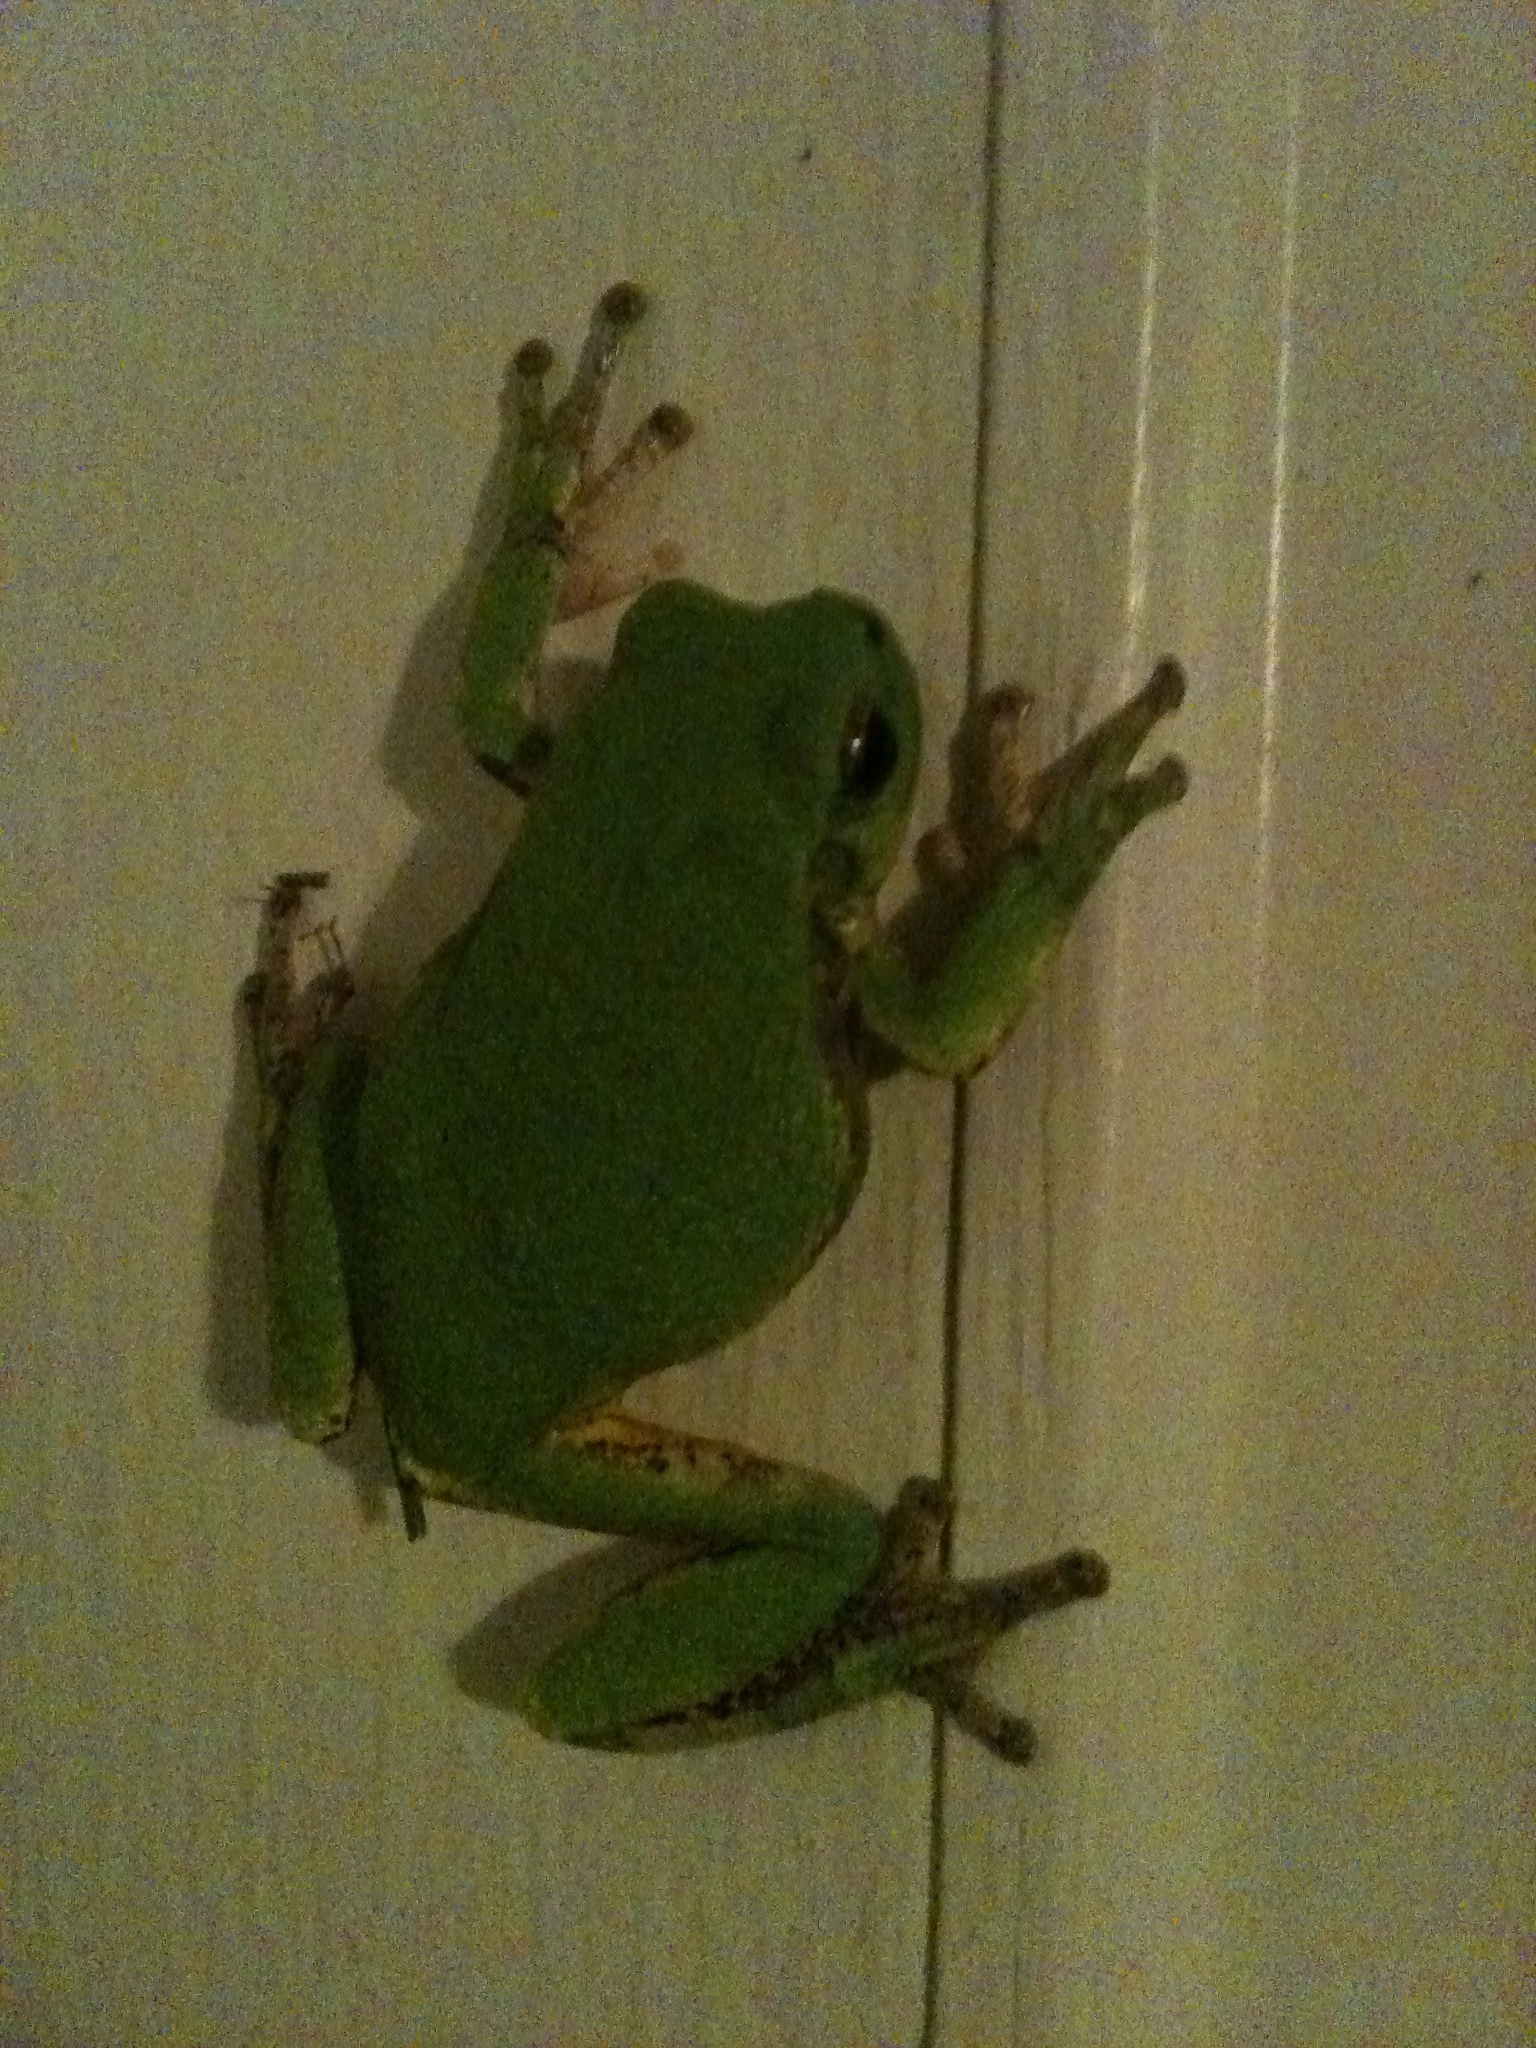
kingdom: Animalia
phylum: Chordata
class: Amphibia
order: Anura
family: Hylidae
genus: Hyla
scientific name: Hyla
